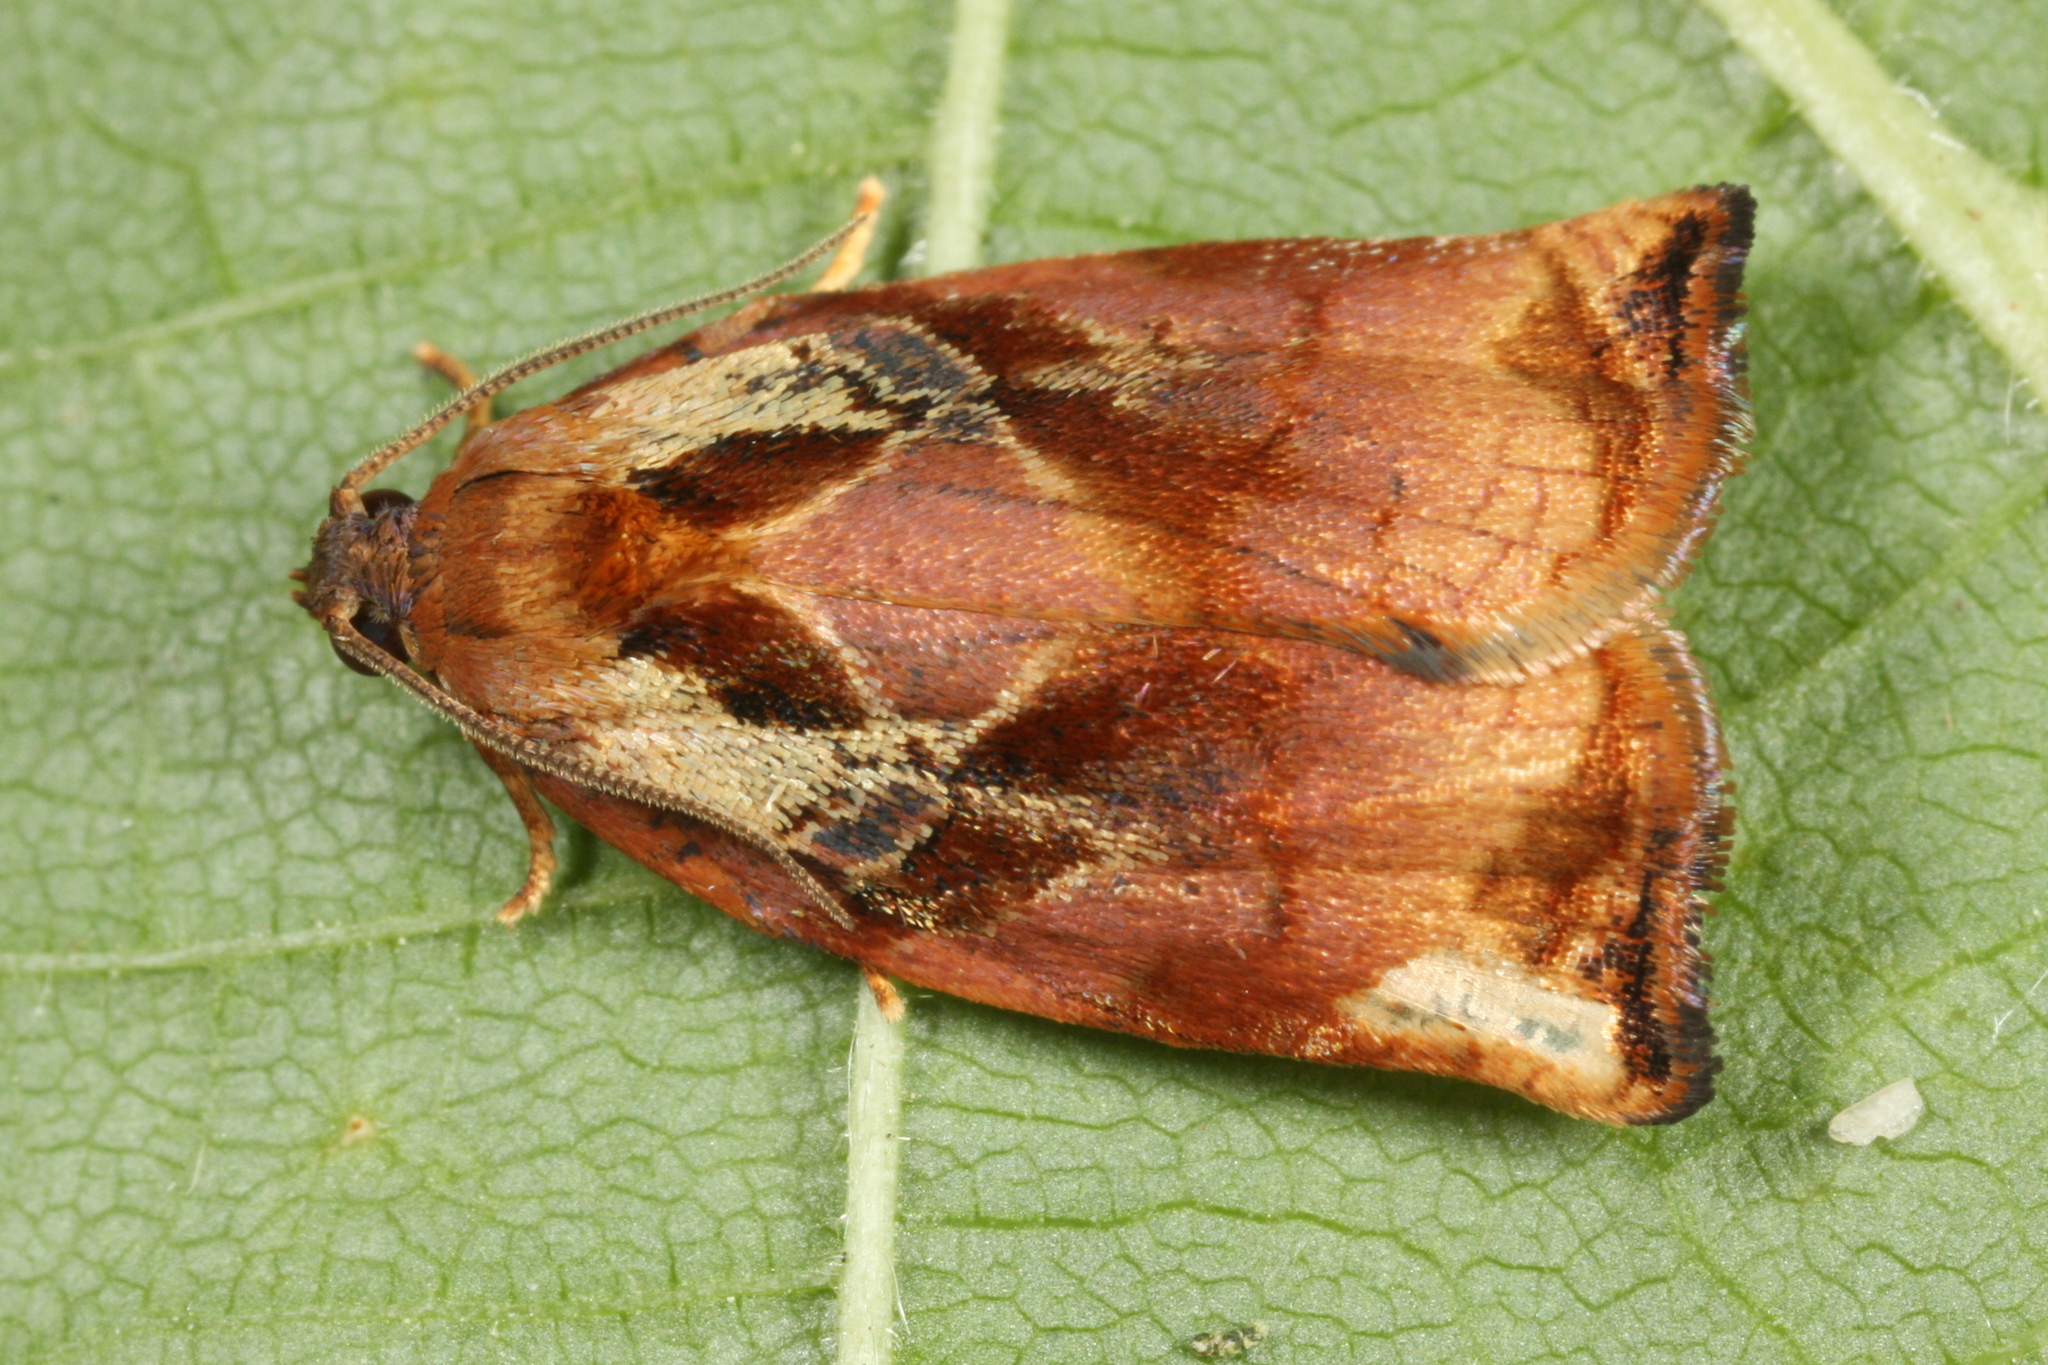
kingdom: Animalia
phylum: Arthropoda
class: Insecta
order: Lepidoptera
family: Tortricidae
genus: Archips
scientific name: Archips podana
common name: Large fruit-tree tortrix
